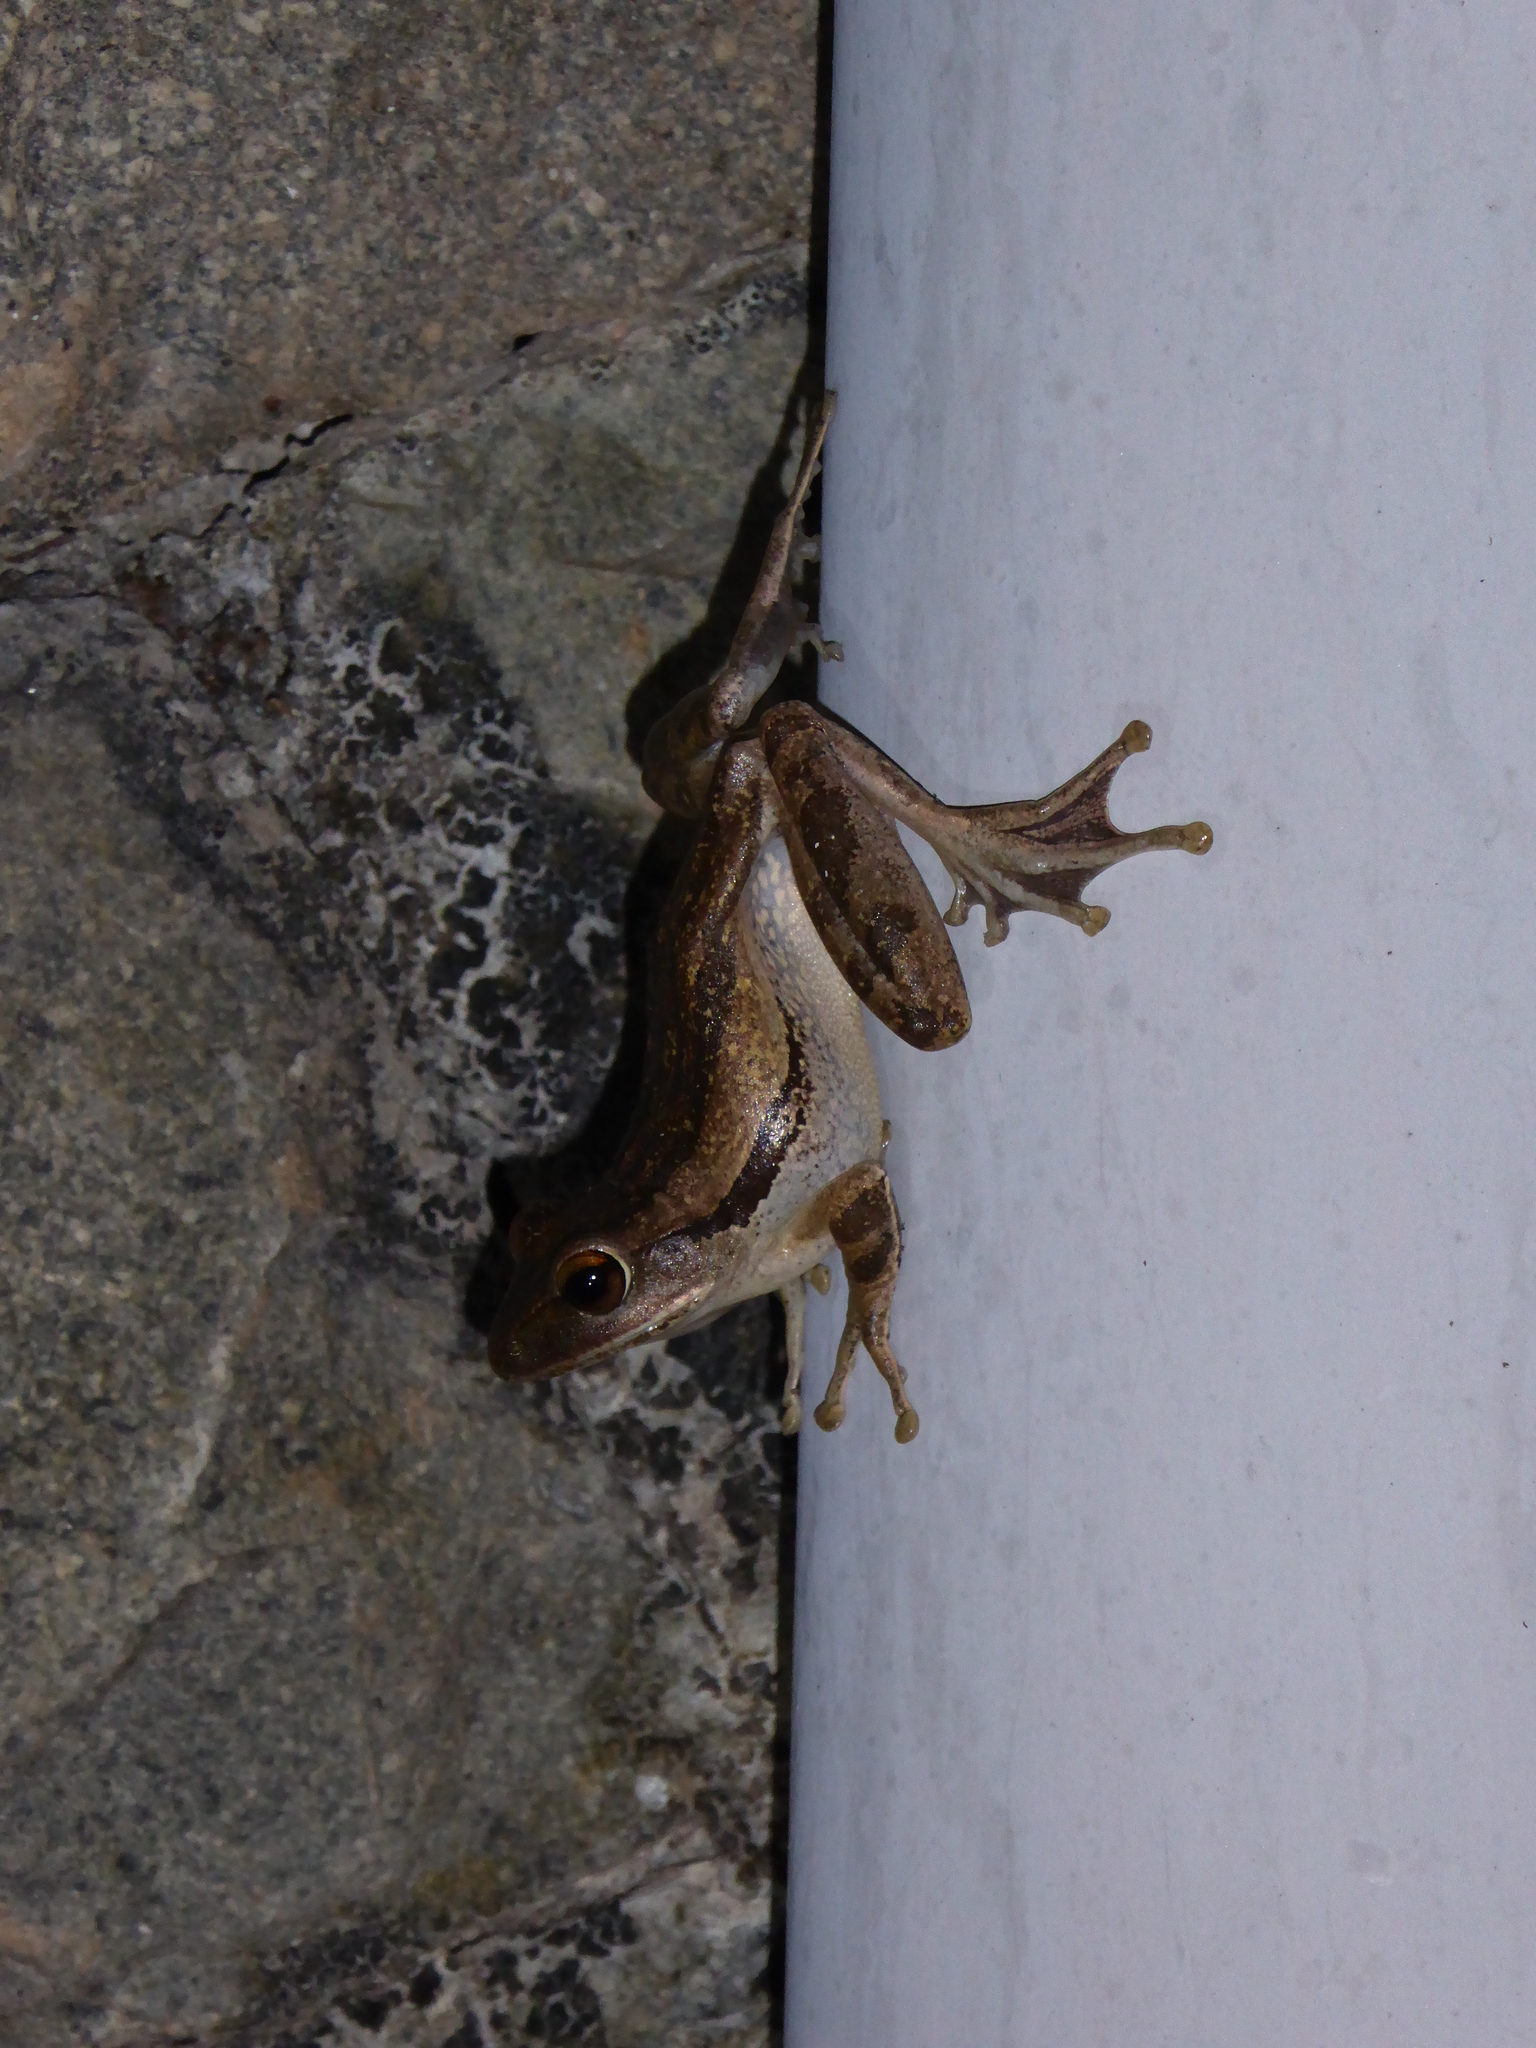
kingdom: Animalia
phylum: Chordata
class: Amphibia
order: Anura
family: Rhacophoridae
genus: Polypedates
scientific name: Polypedates leucomystax
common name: Common tree frog/four-lined tree frog
